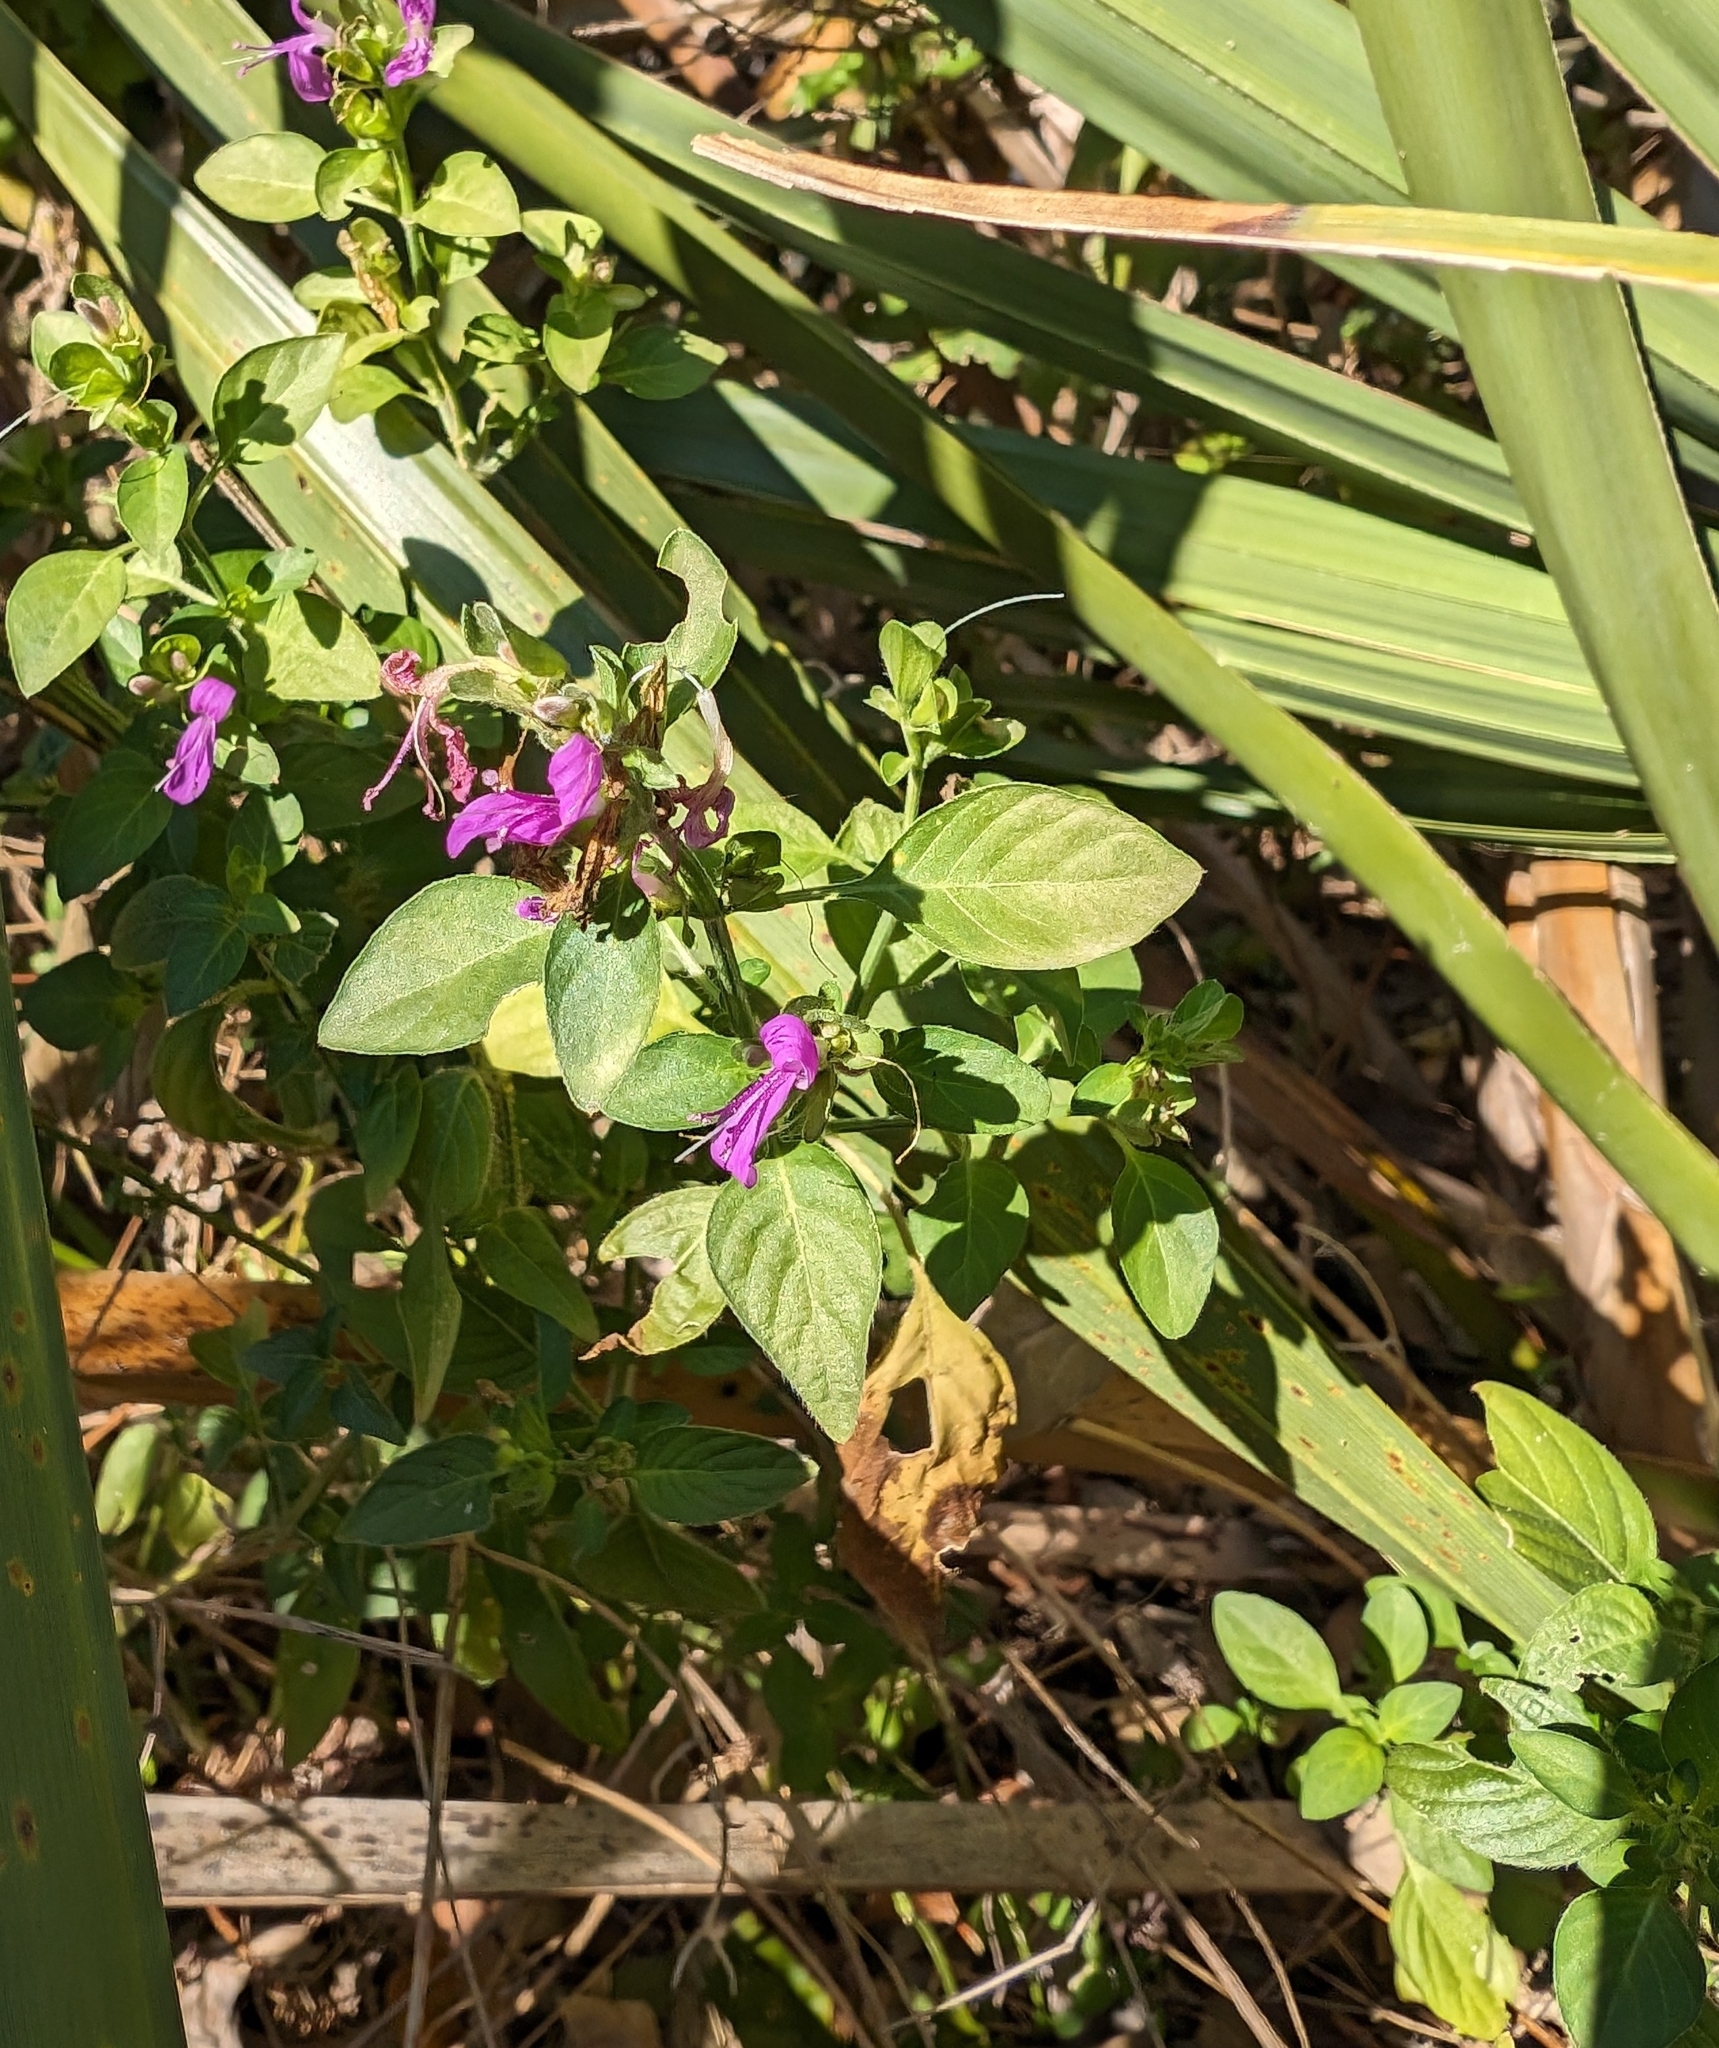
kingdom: Plantae
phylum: Tracheophyta
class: Magnoliopsida
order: Lamiales
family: Acanthaceae
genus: Dicliptera
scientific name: Dicliptera brachiata
